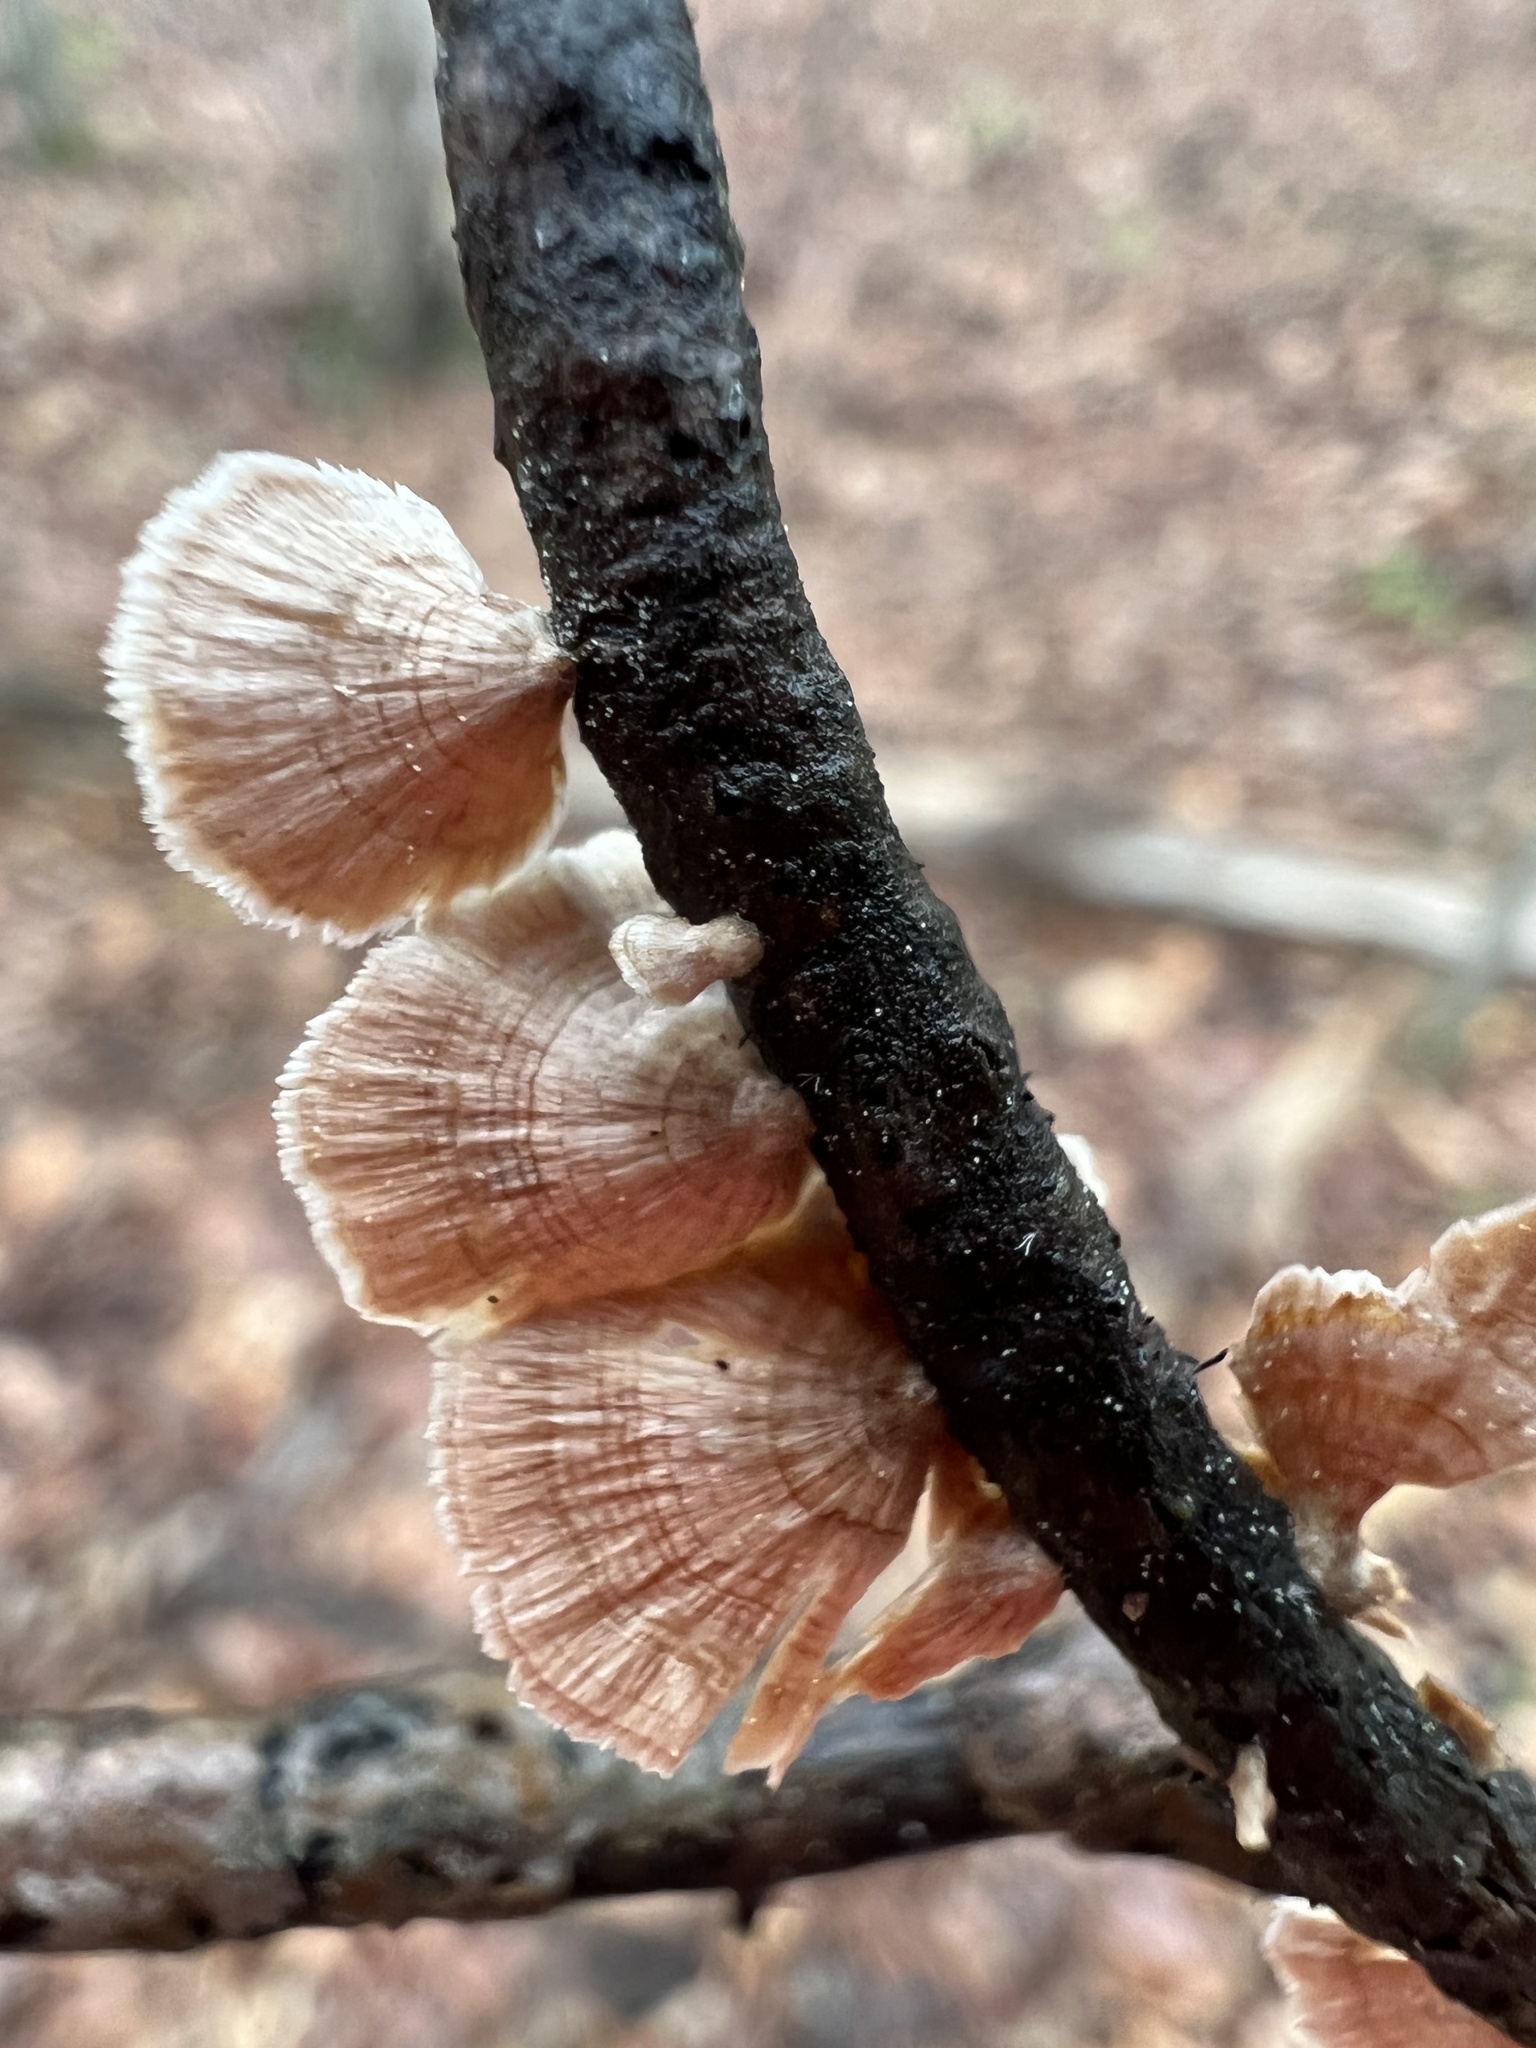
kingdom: Fungi
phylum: Basidiomycota
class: Agaricomycetes
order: Russulales
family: Stereaceae
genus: Stereum
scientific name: Stereum striatum
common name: Silky parchment
